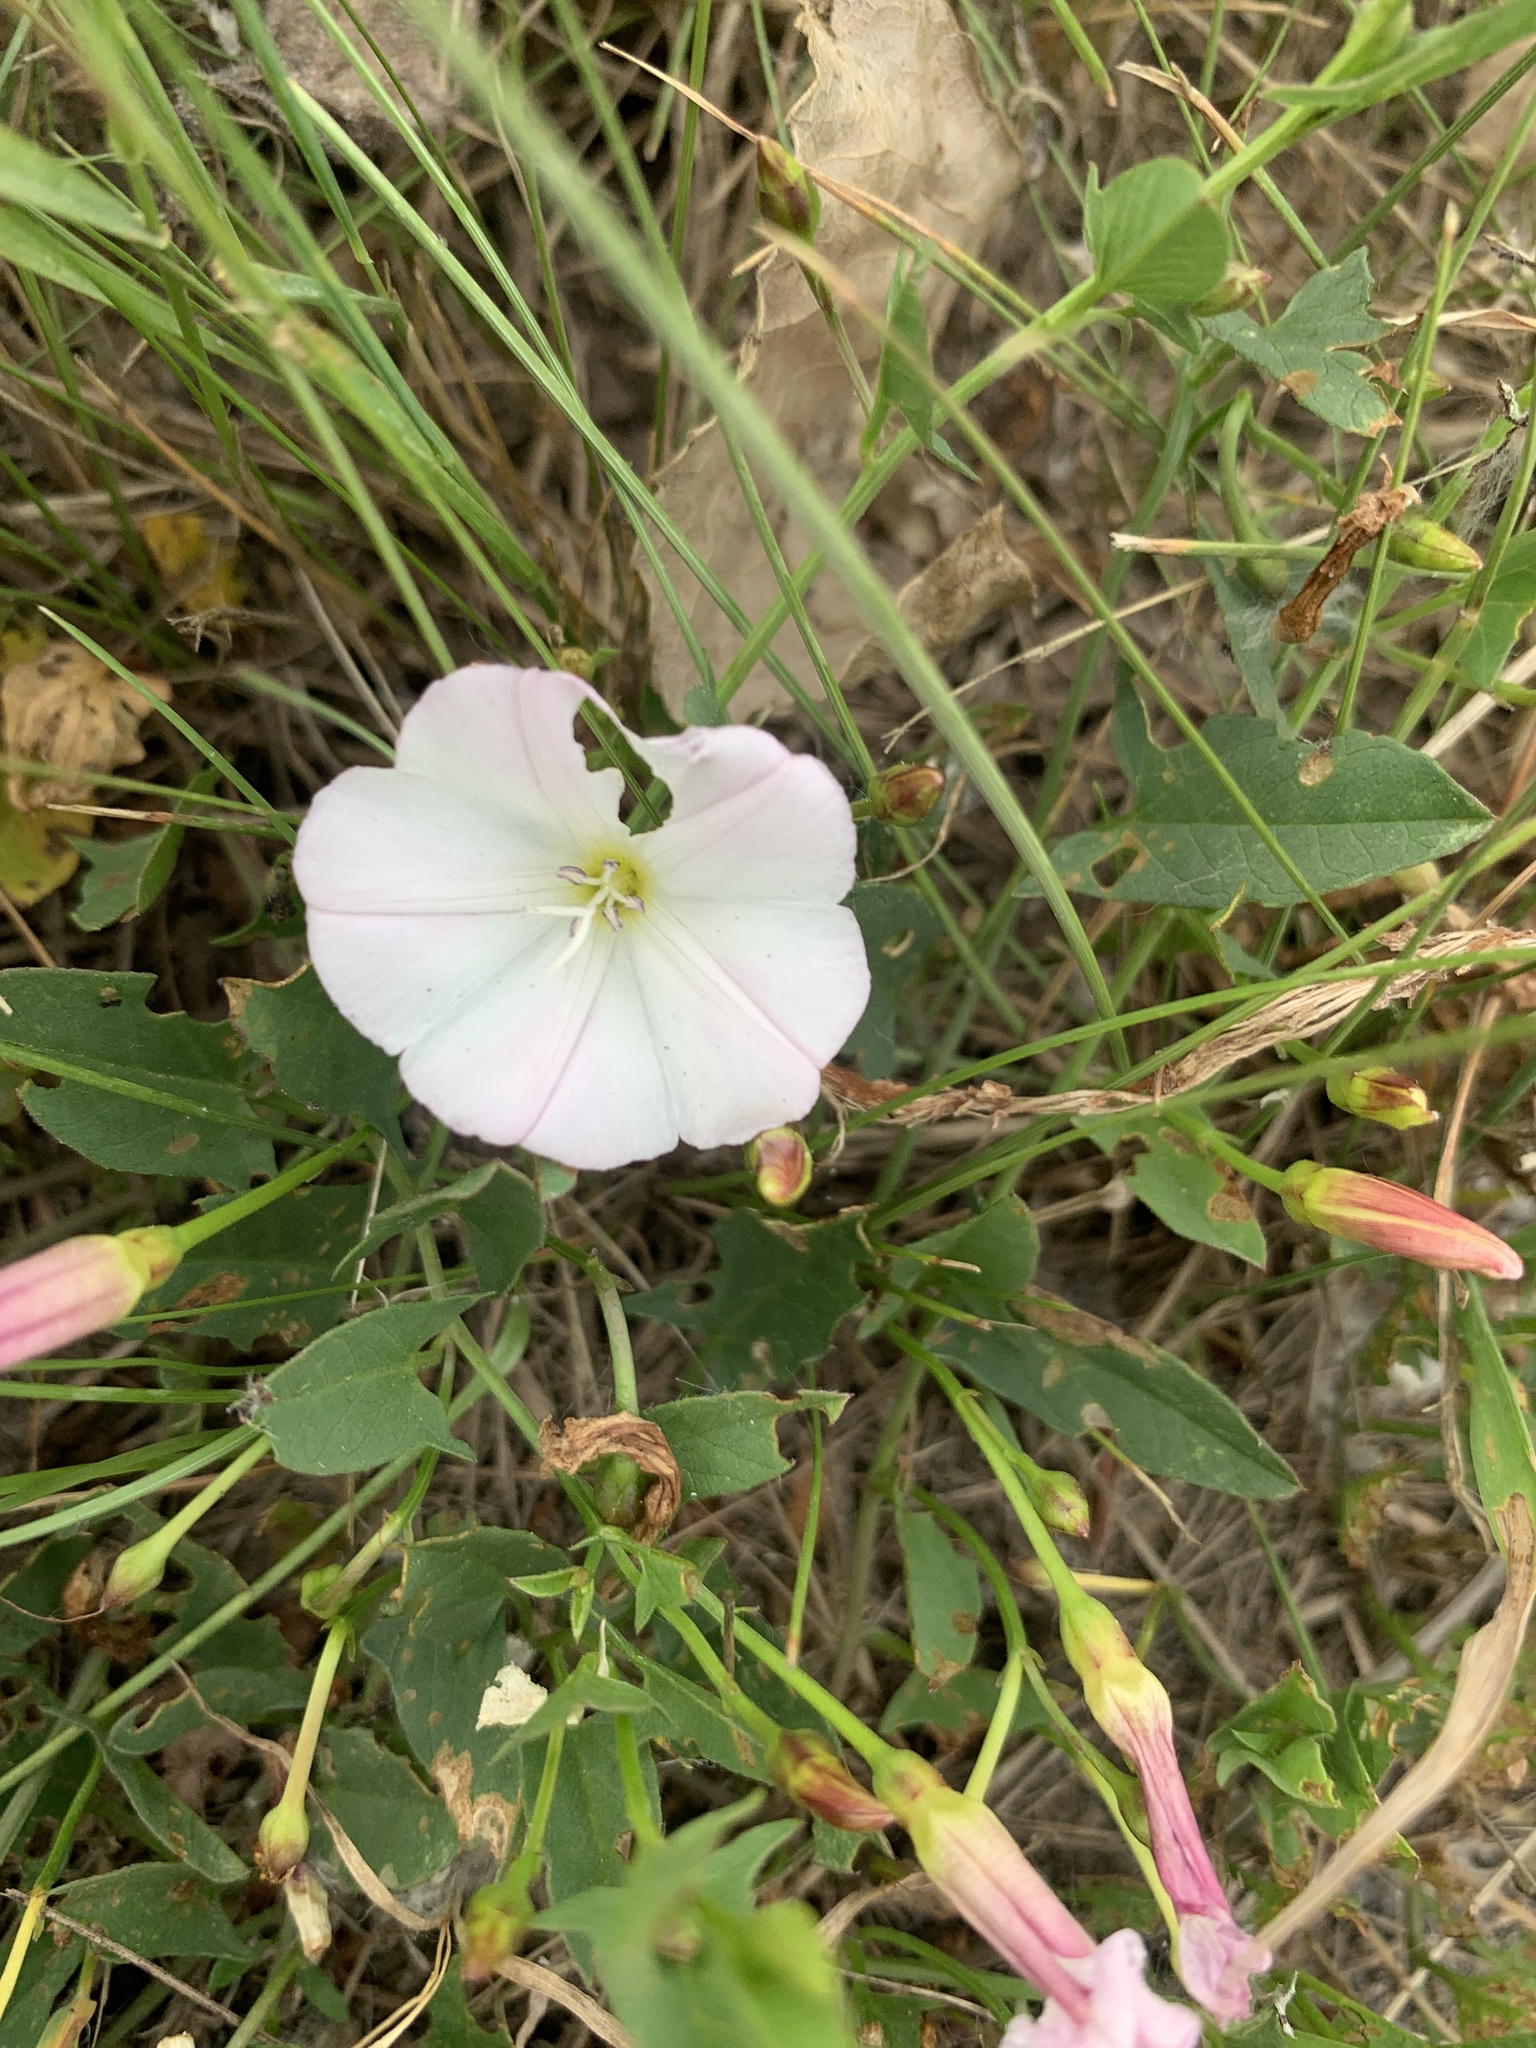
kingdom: Plantae
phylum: Tracheophyta
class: Magnoliopsida
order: Solanales
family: Convolvulaceae
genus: Convolvulus
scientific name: Convolvulus arvensis
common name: Field bindweed
